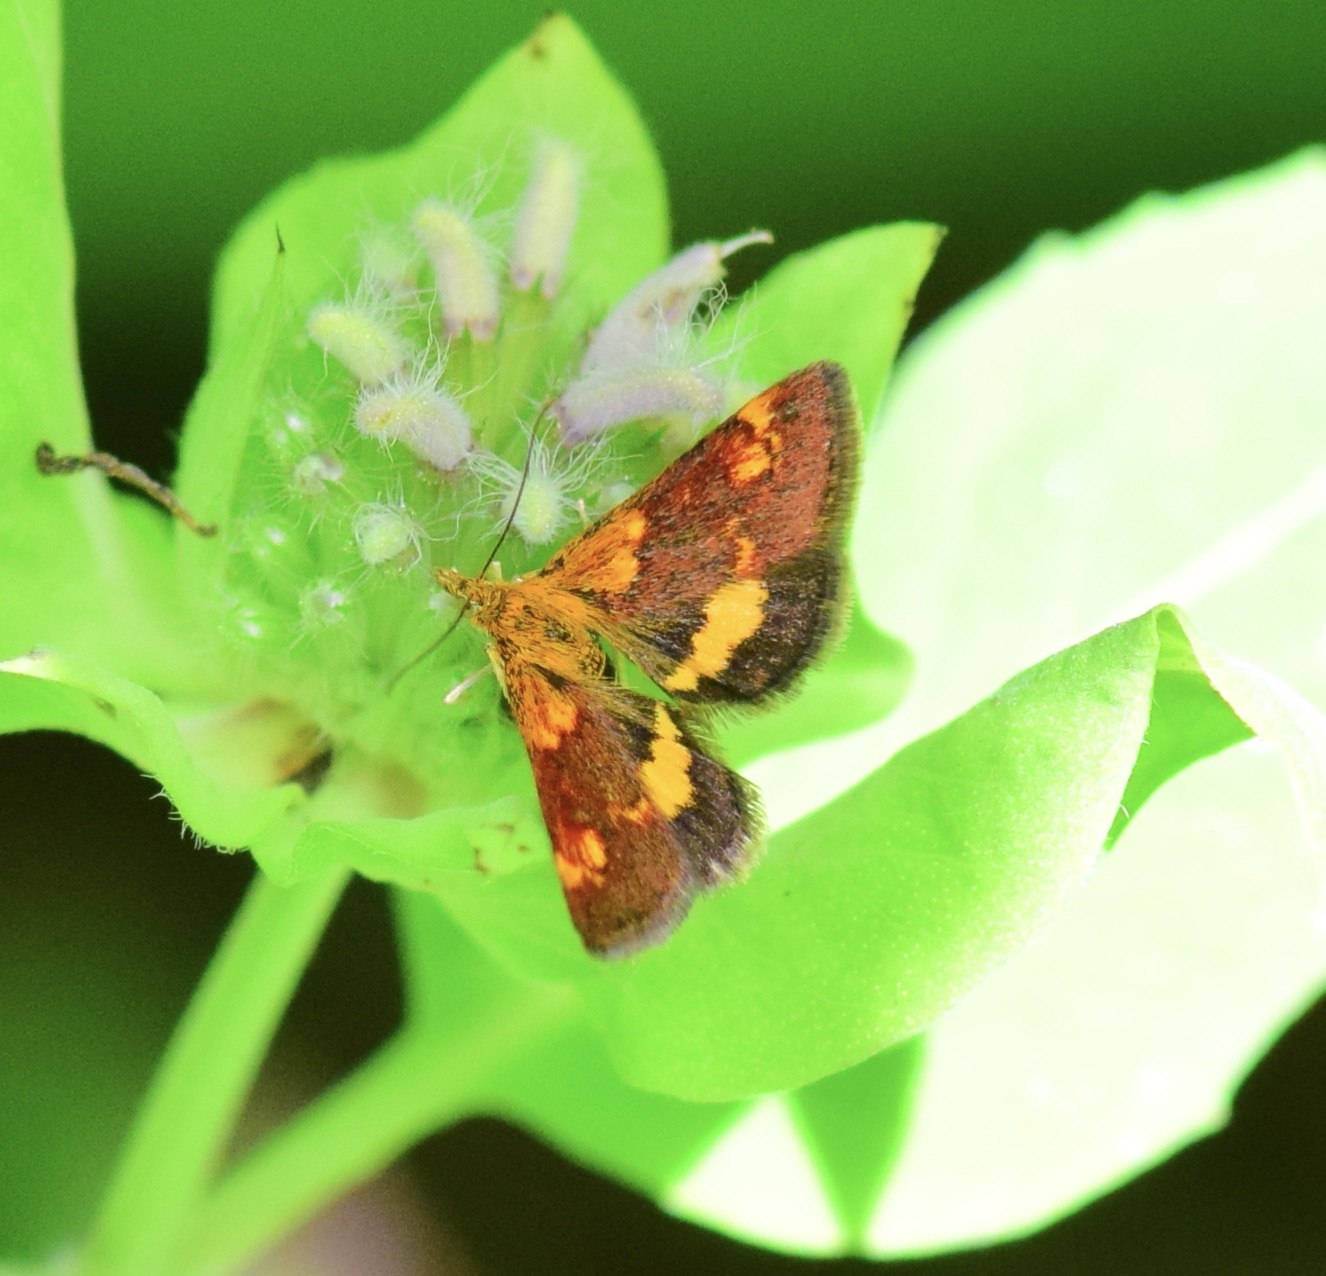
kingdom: Animalia
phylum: Arthropoda
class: Insecta
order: Lepidoptera
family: Crambidae
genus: Pyrausta
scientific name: Pyrausta orphisalis
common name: Orange mint moth
